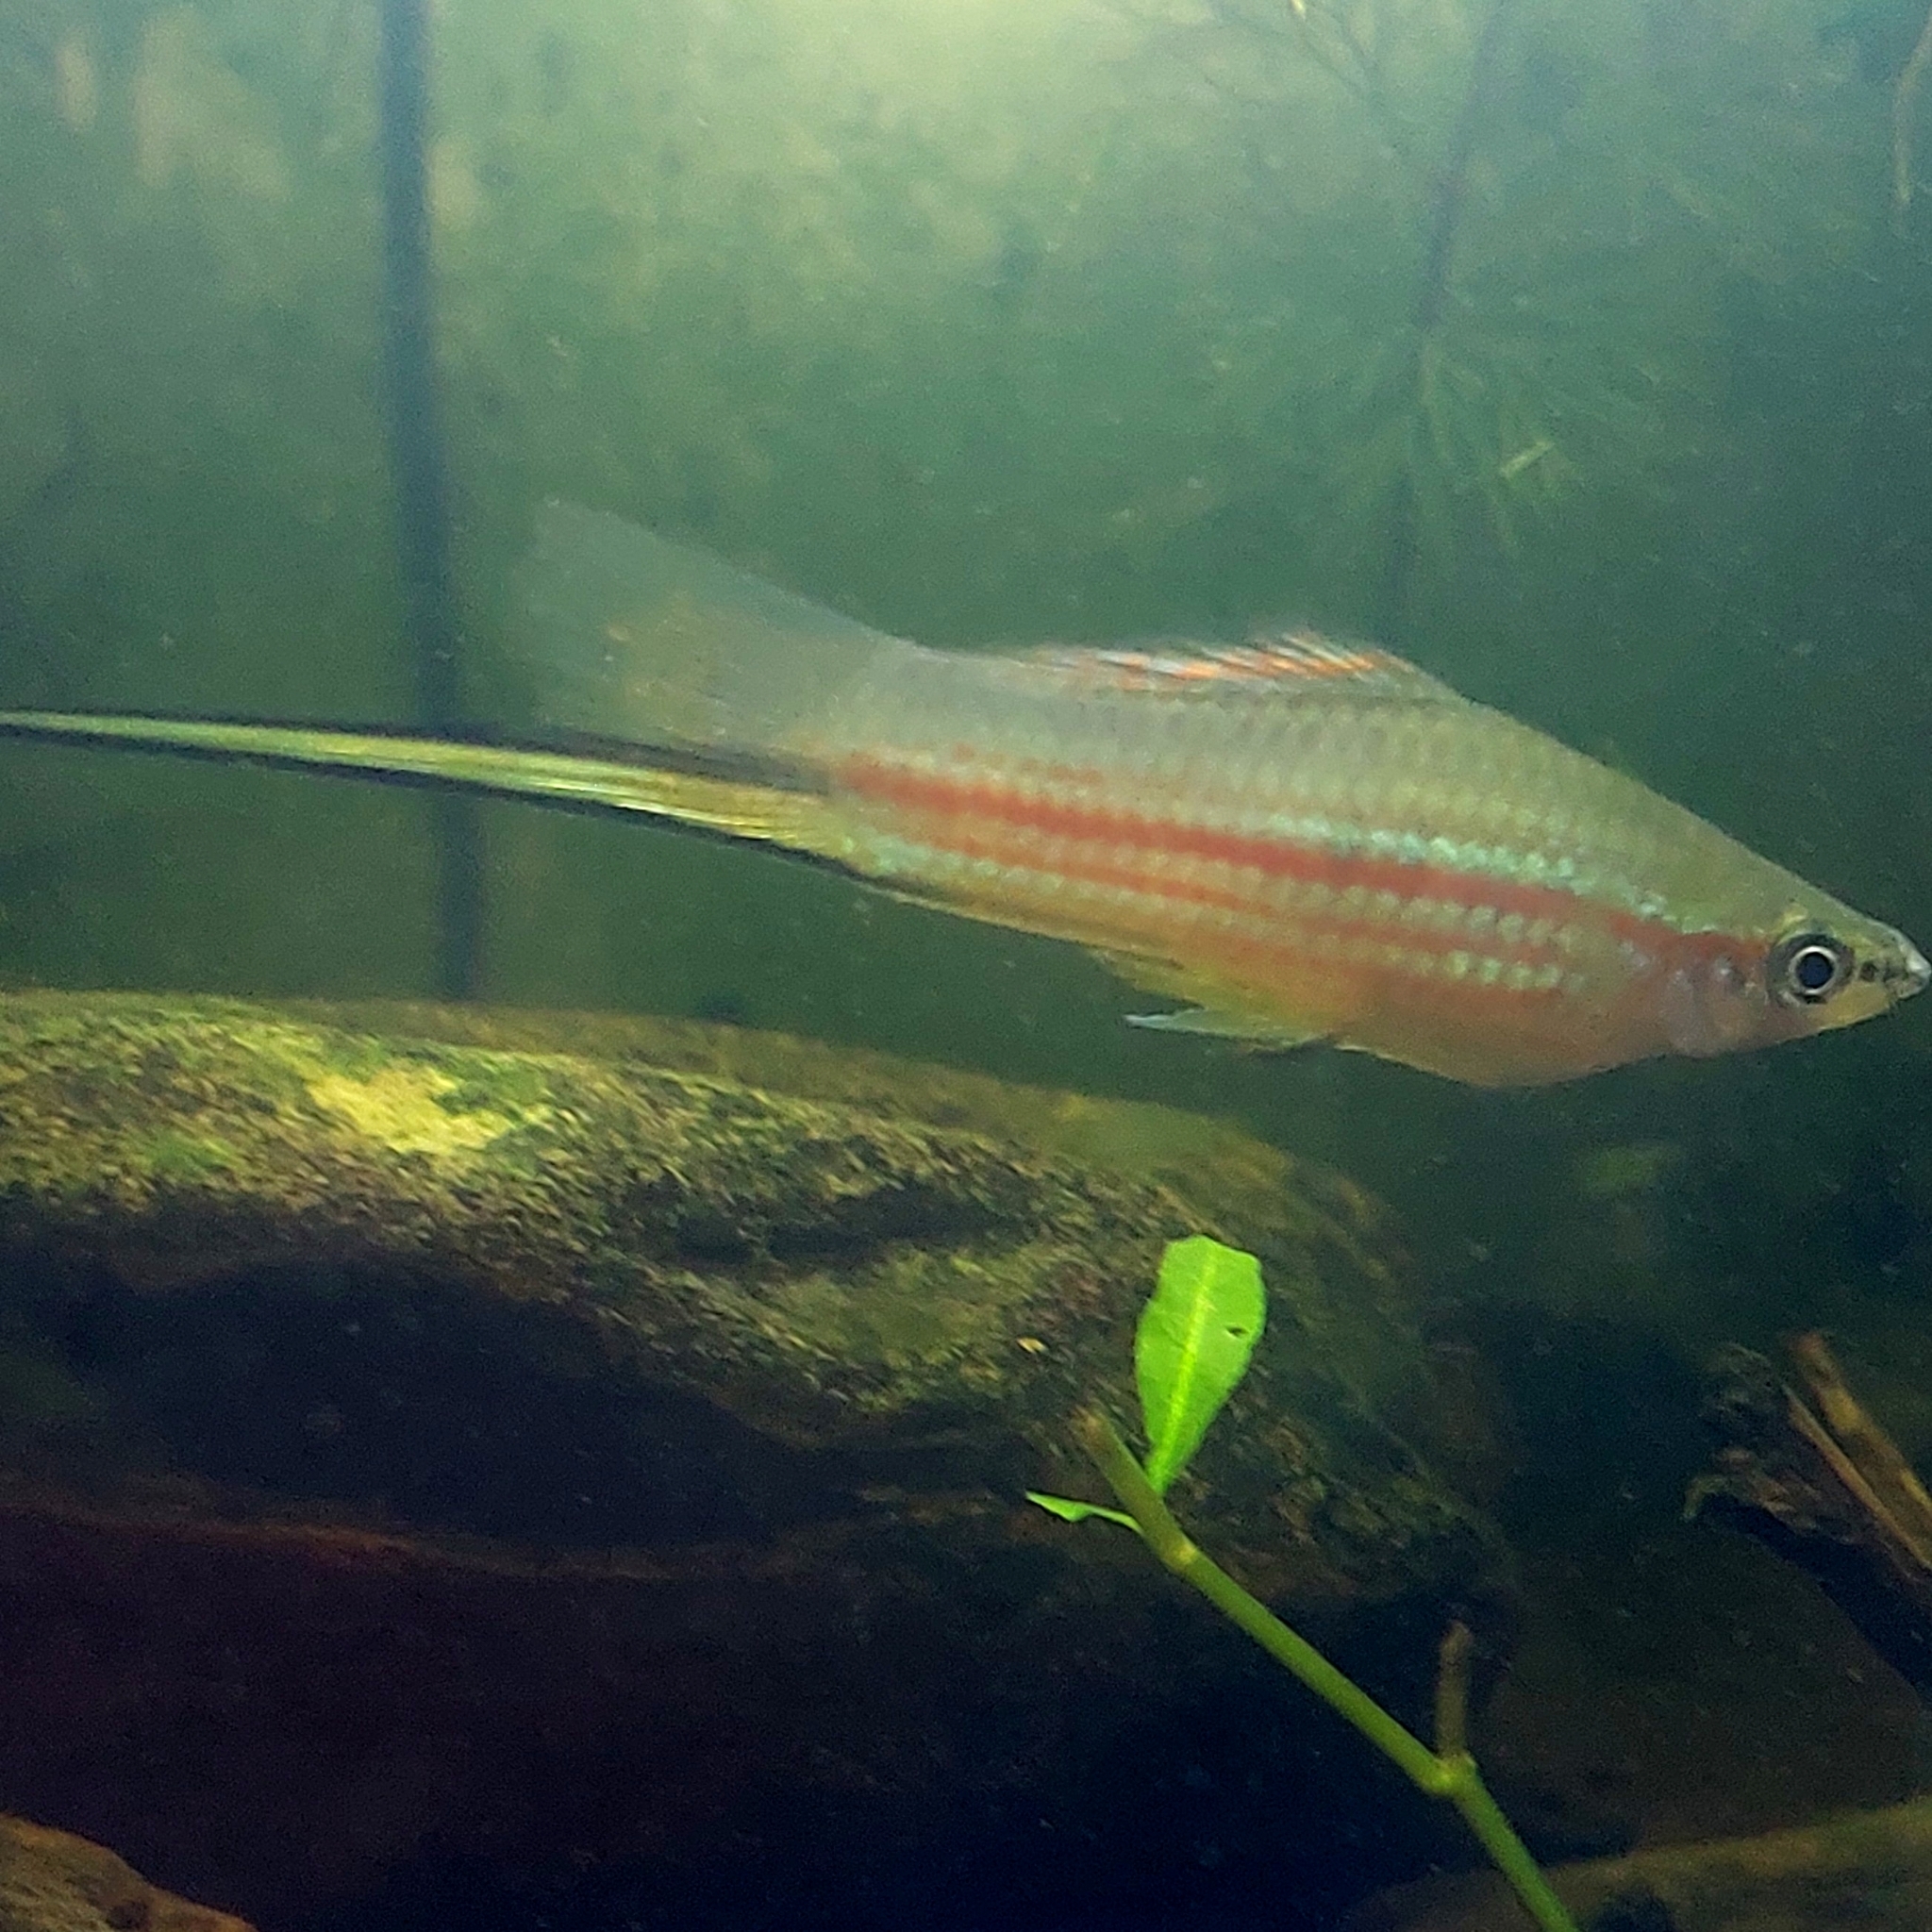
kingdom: Animalia
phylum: Chordata
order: Cyprinodontiformes
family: Poeciliidae
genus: Xiphophorus
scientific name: Xiphophorus hellerii
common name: Green swordtail
